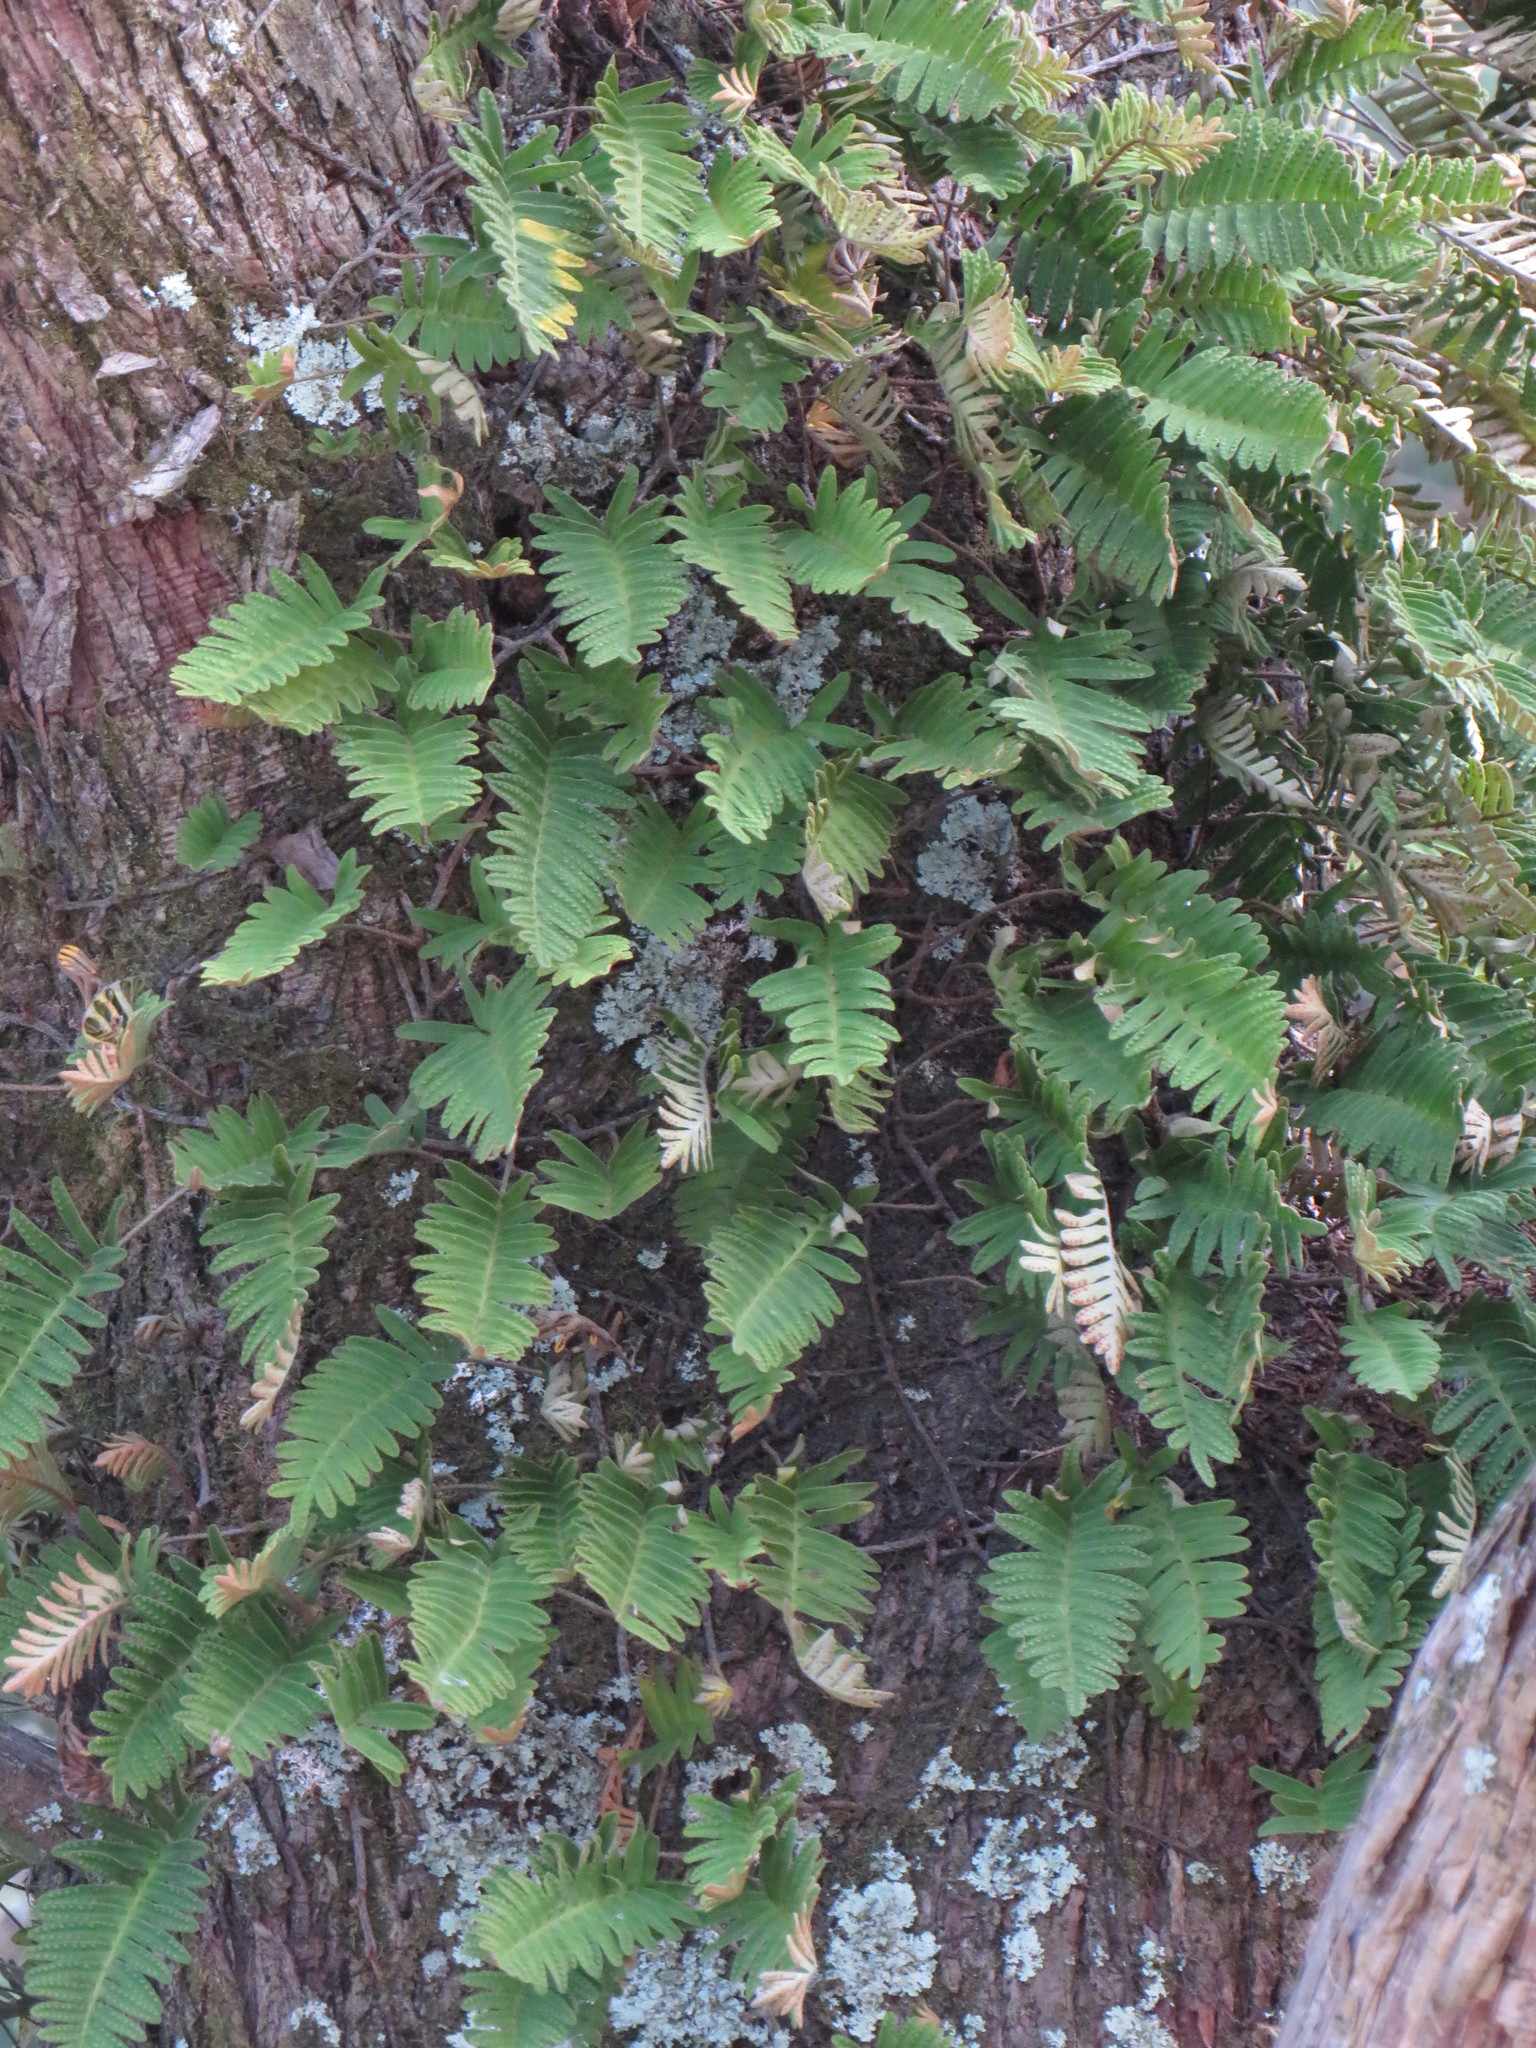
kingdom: Plantae
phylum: Tracheophyta
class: Polypodiopsida
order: Polypodiales
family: Polypodiaceae
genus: Pleopeltis
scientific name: Pleopeltis michauxiana
